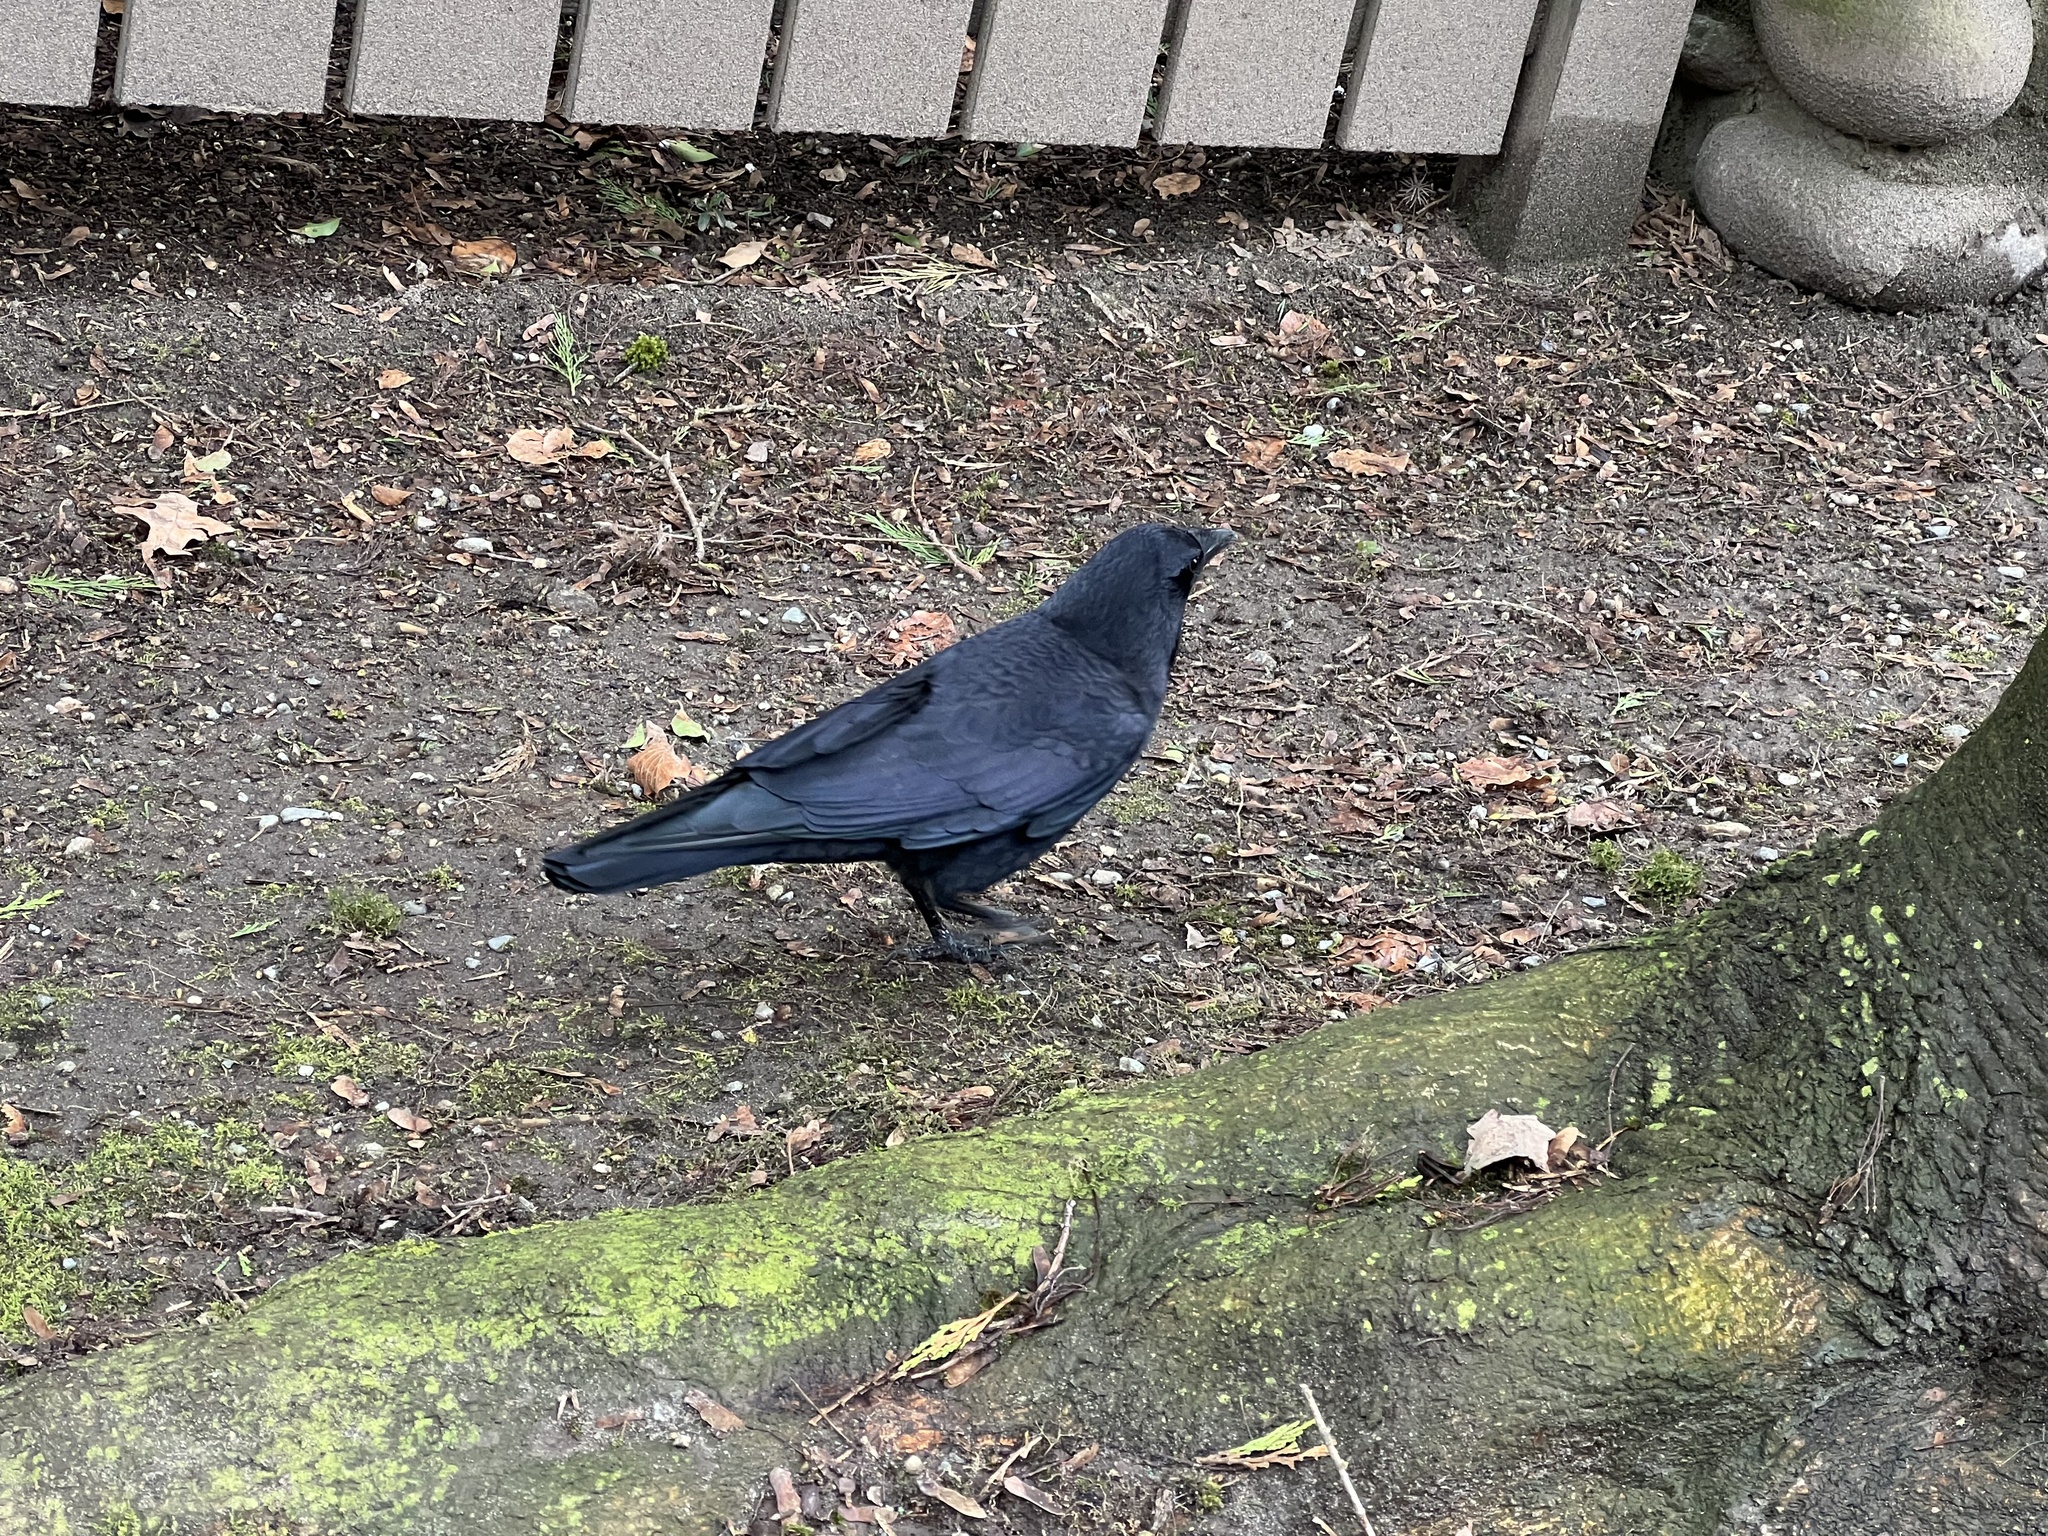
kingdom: Animalia
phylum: Chordata
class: Aves
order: Passeriformes
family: Corvidae
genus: Corvus
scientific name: Corvus brachyrhynchos
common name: American crow
